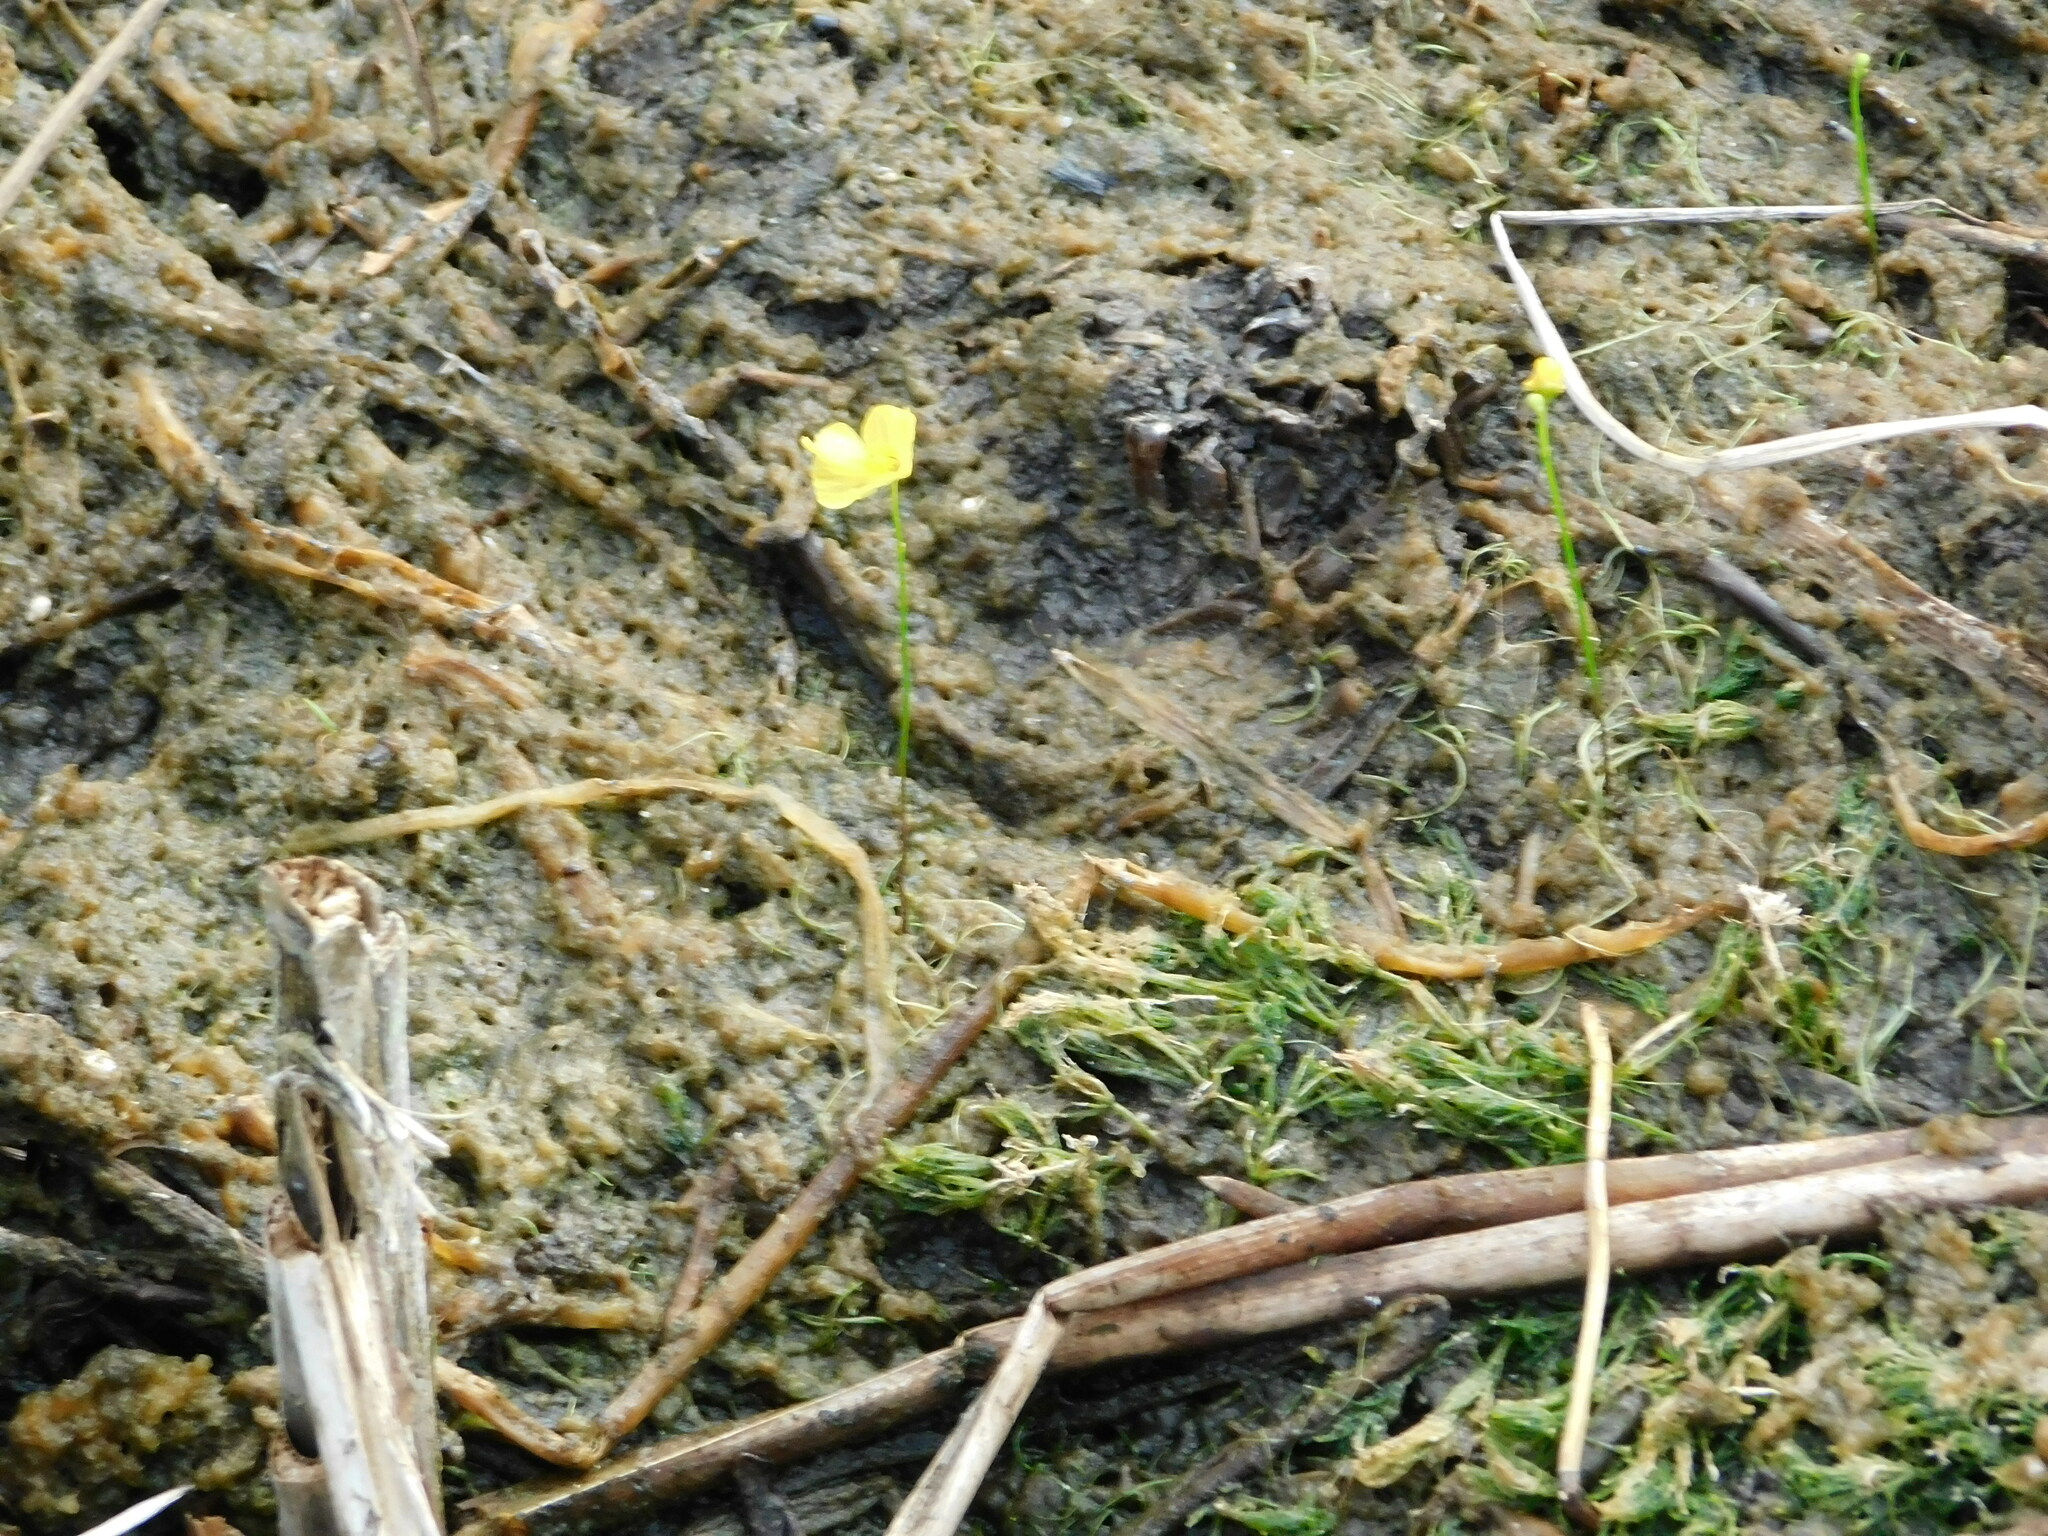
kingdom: Plantae
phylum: Tracheophyta
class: Magnoliopsida
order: Lamiales
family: Lentibulariaceae
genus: Utricularia
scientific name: Utricularia gibba
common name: Humped bladderwort
